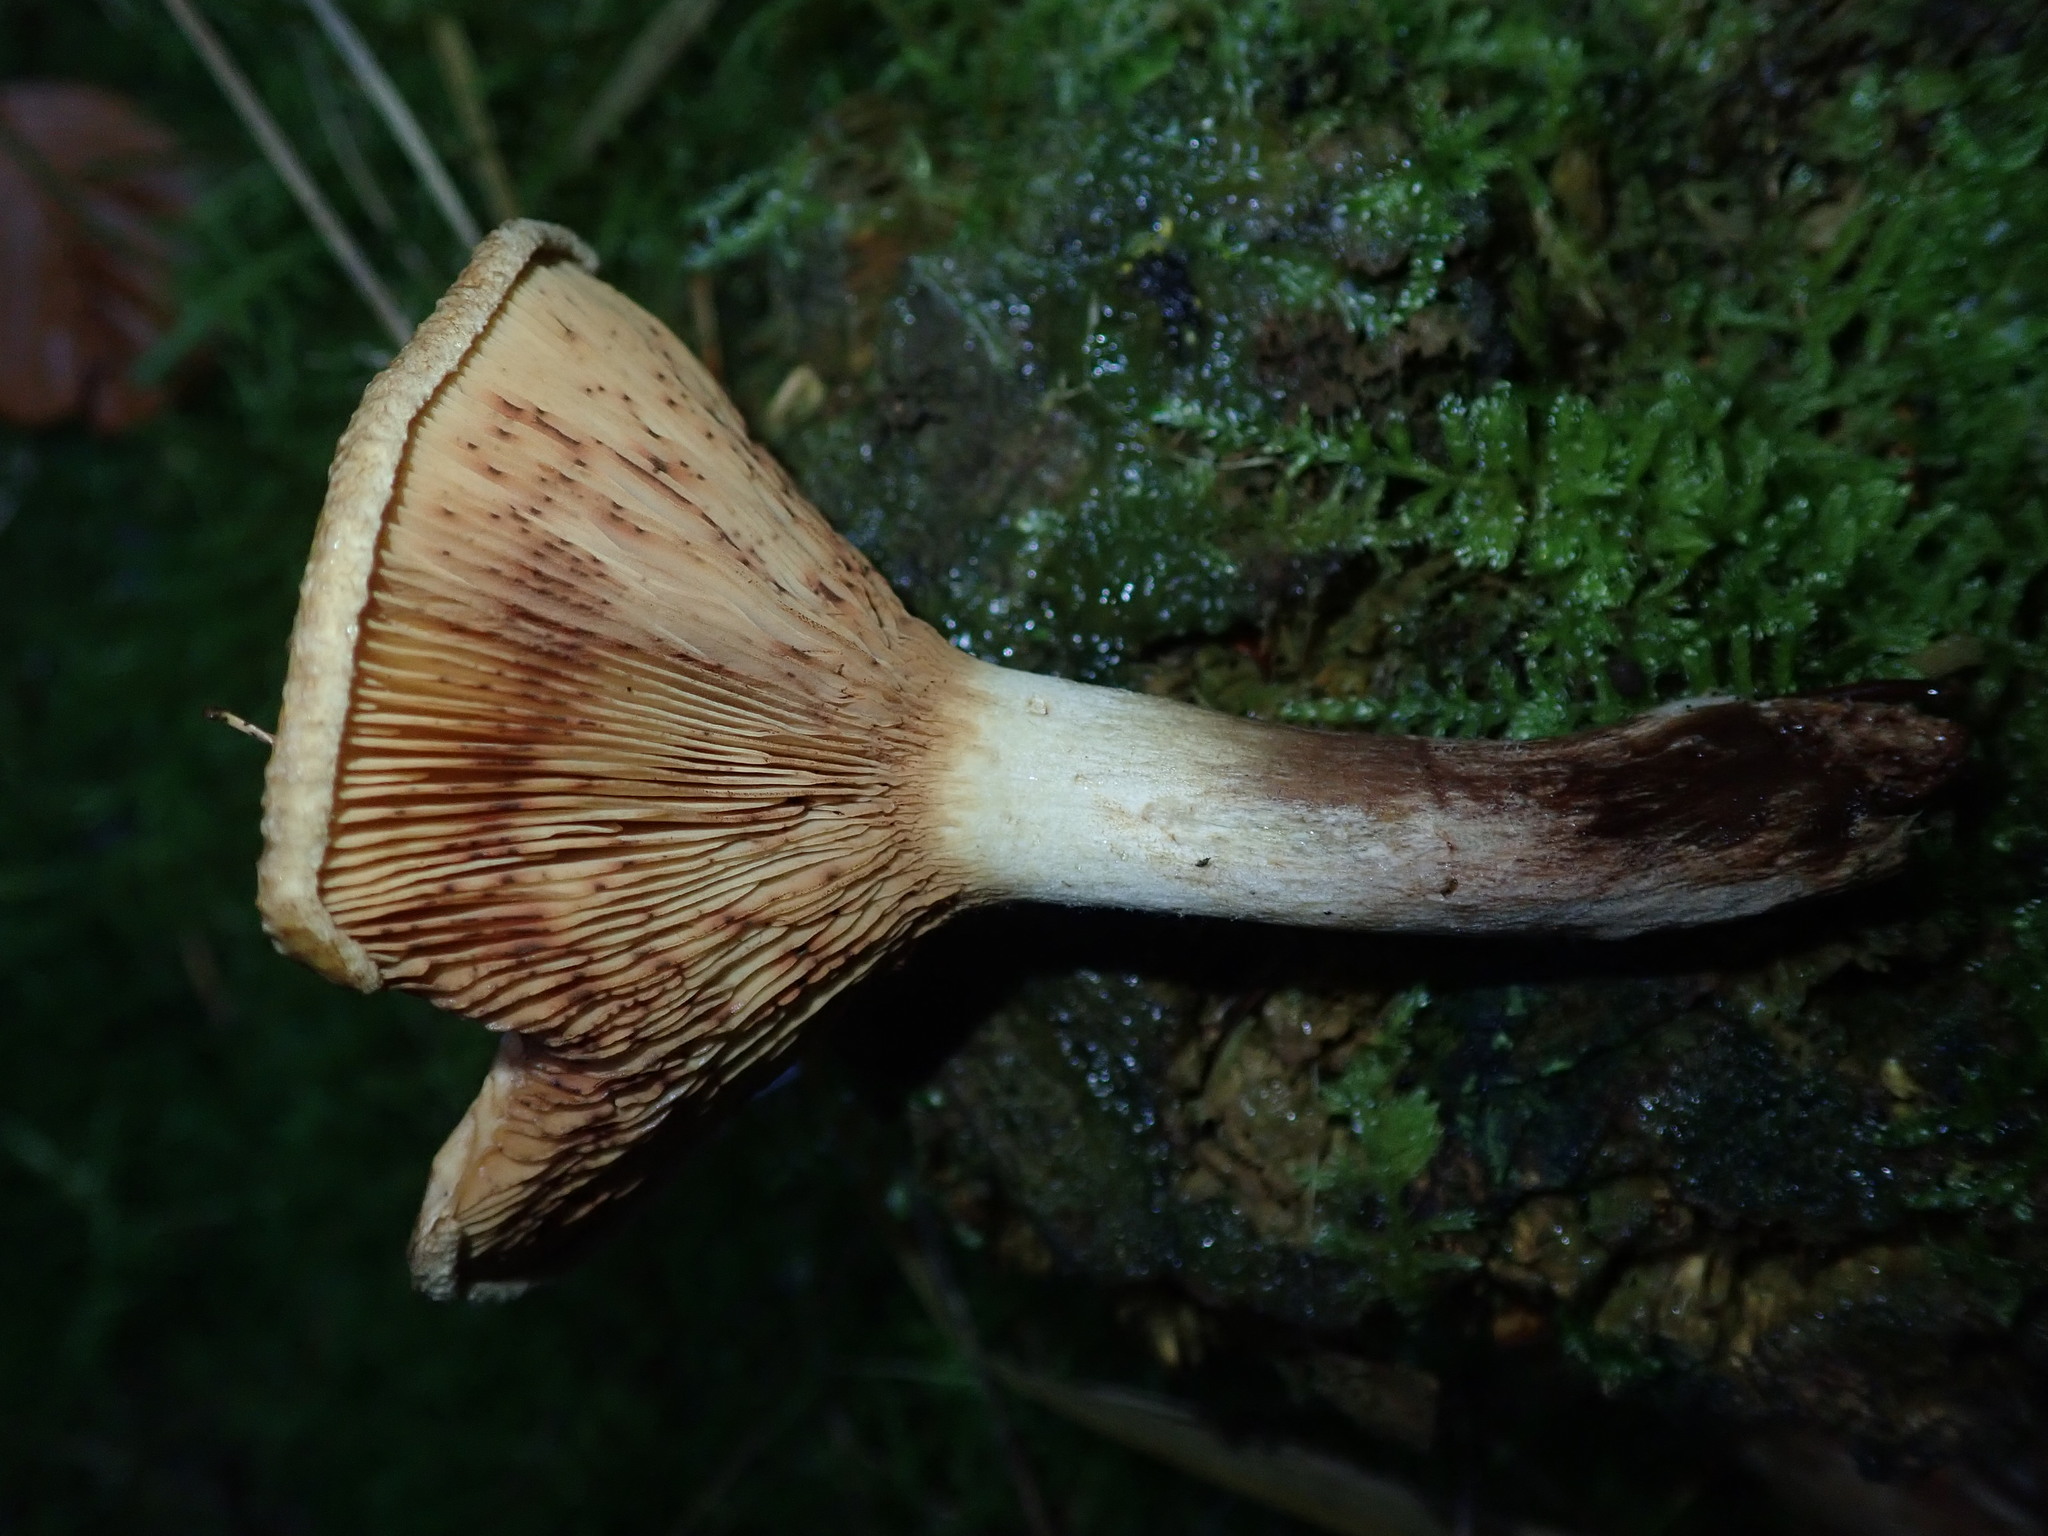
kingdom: Fungi
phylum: Basidiomycota
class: Agaricomycetes
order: Boletales
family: Paxillaceae
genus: Paxillus
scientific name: Paxillus involutus
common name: Brown roll rim
